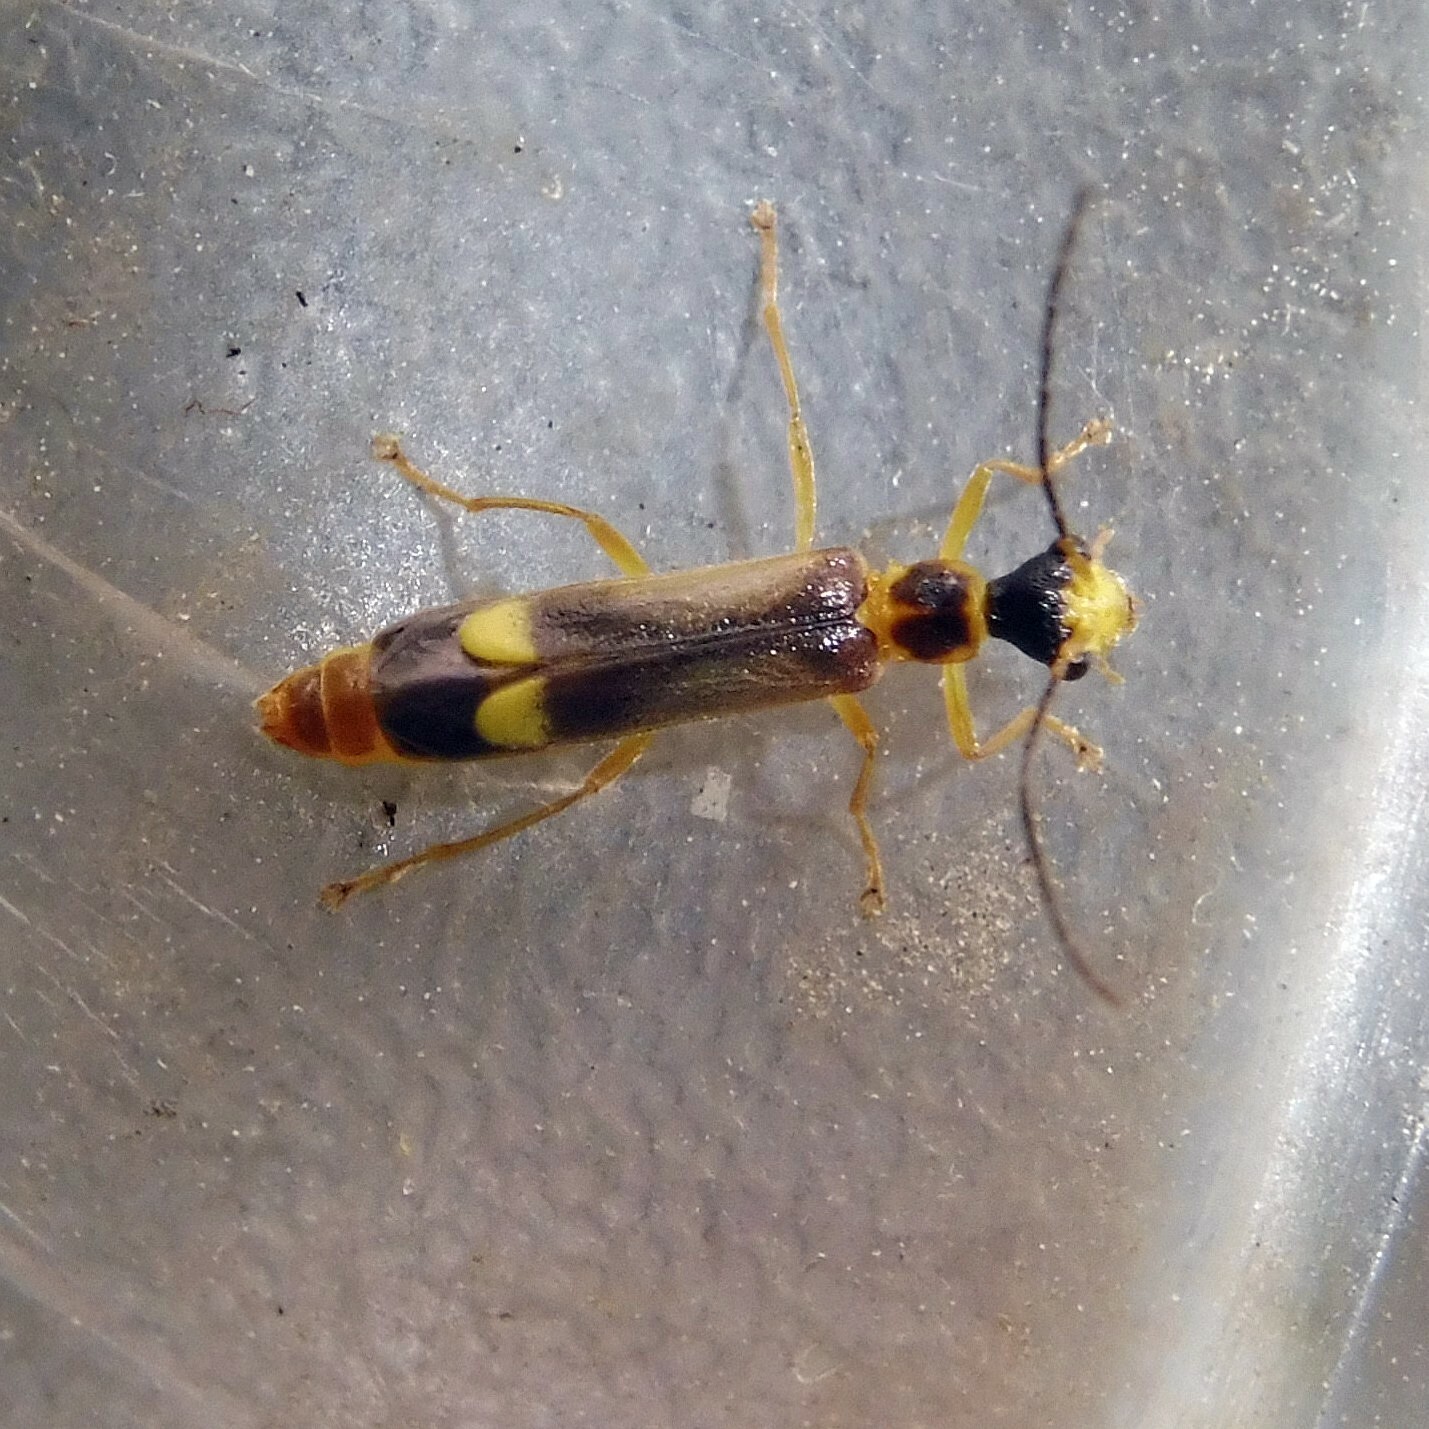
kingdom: Animalia
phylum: Arthropoda
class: Insecta
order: Coleoptera
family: Cantharidae
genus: Malthinus
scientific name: Malthinus flaveolus
